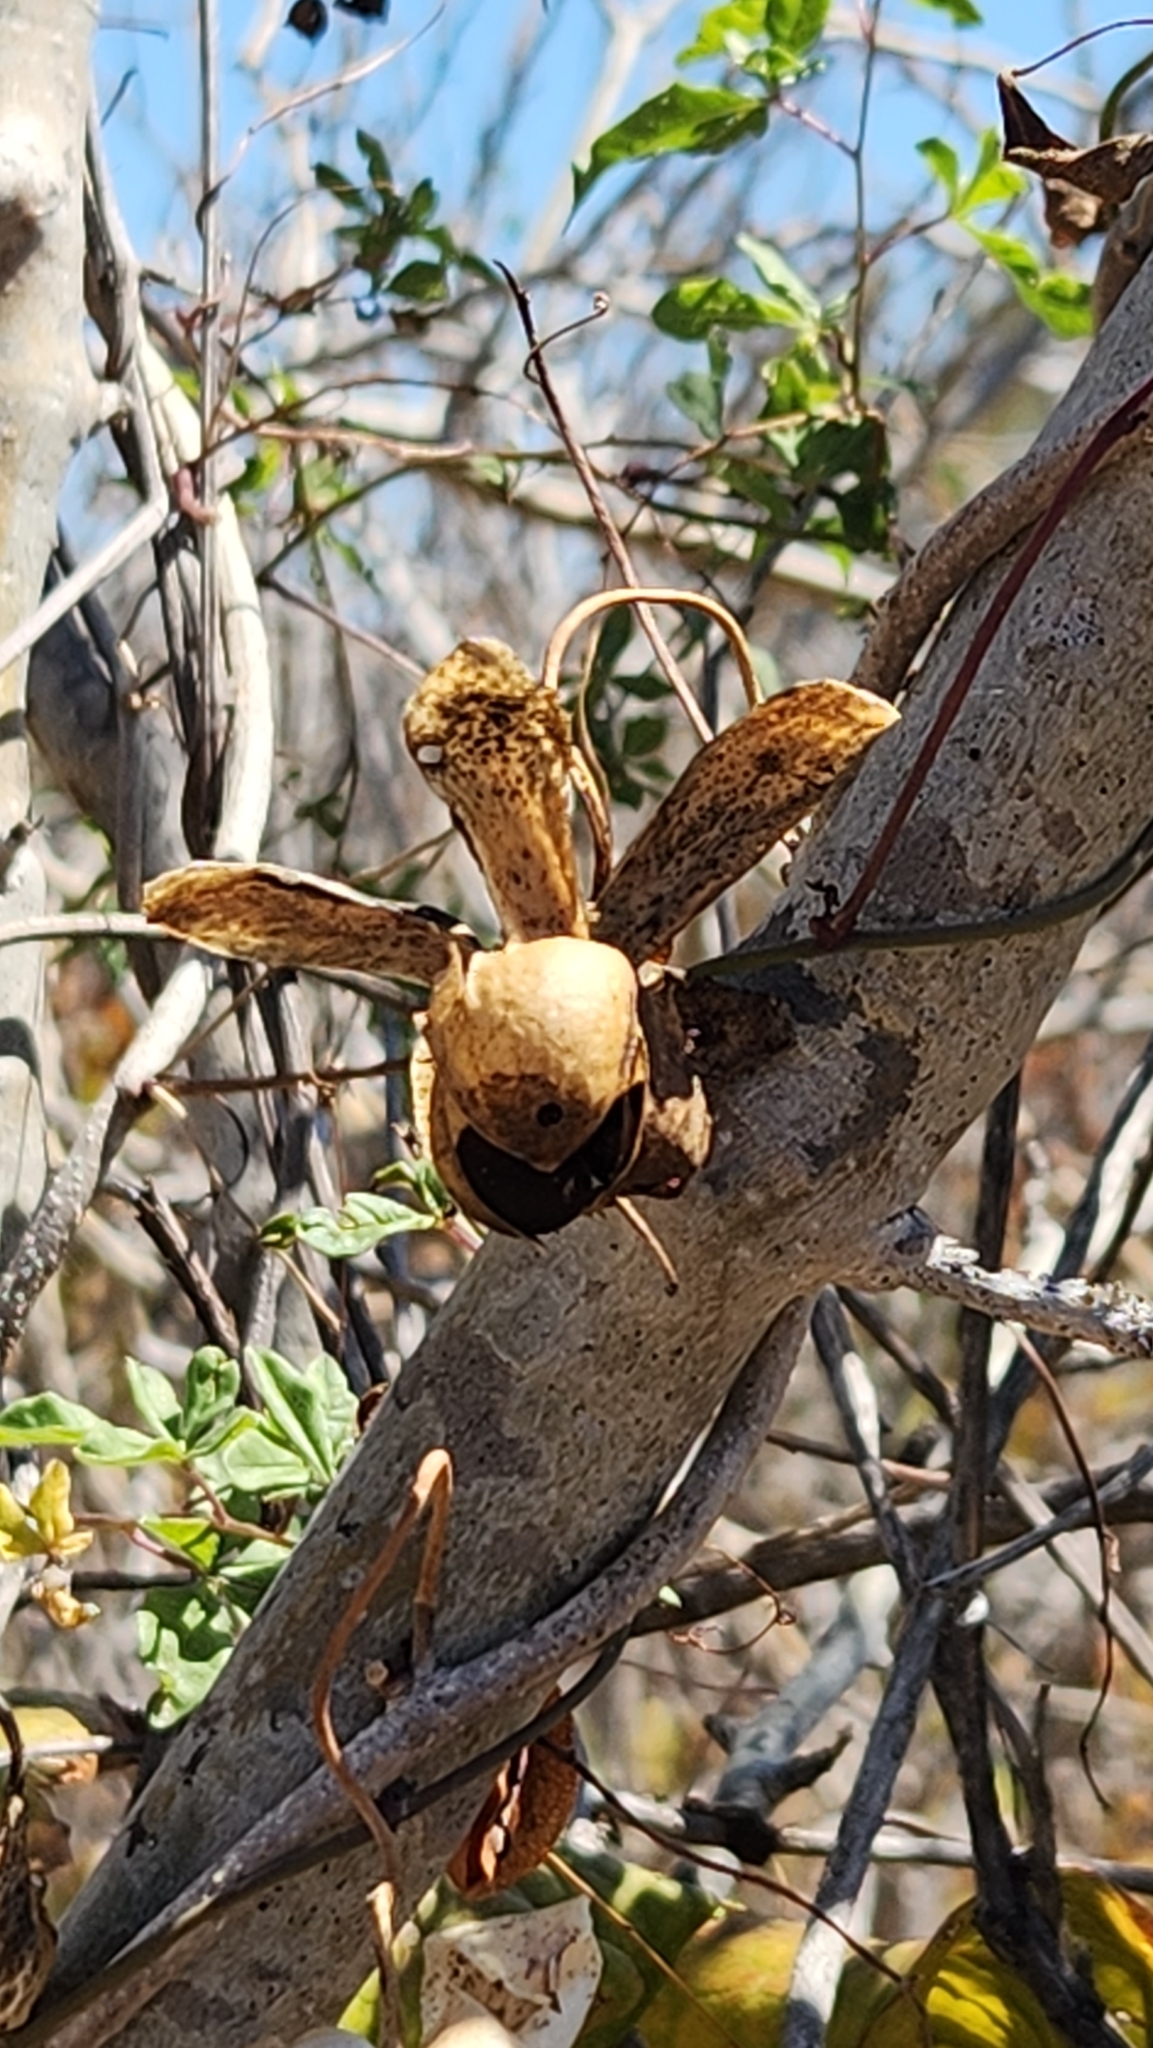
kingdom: Plantae
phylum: Tracheophyta
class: Magnoliopsida
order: Solanales
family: Convolvulaceae
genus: Distimake
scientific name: Distimake aureus
